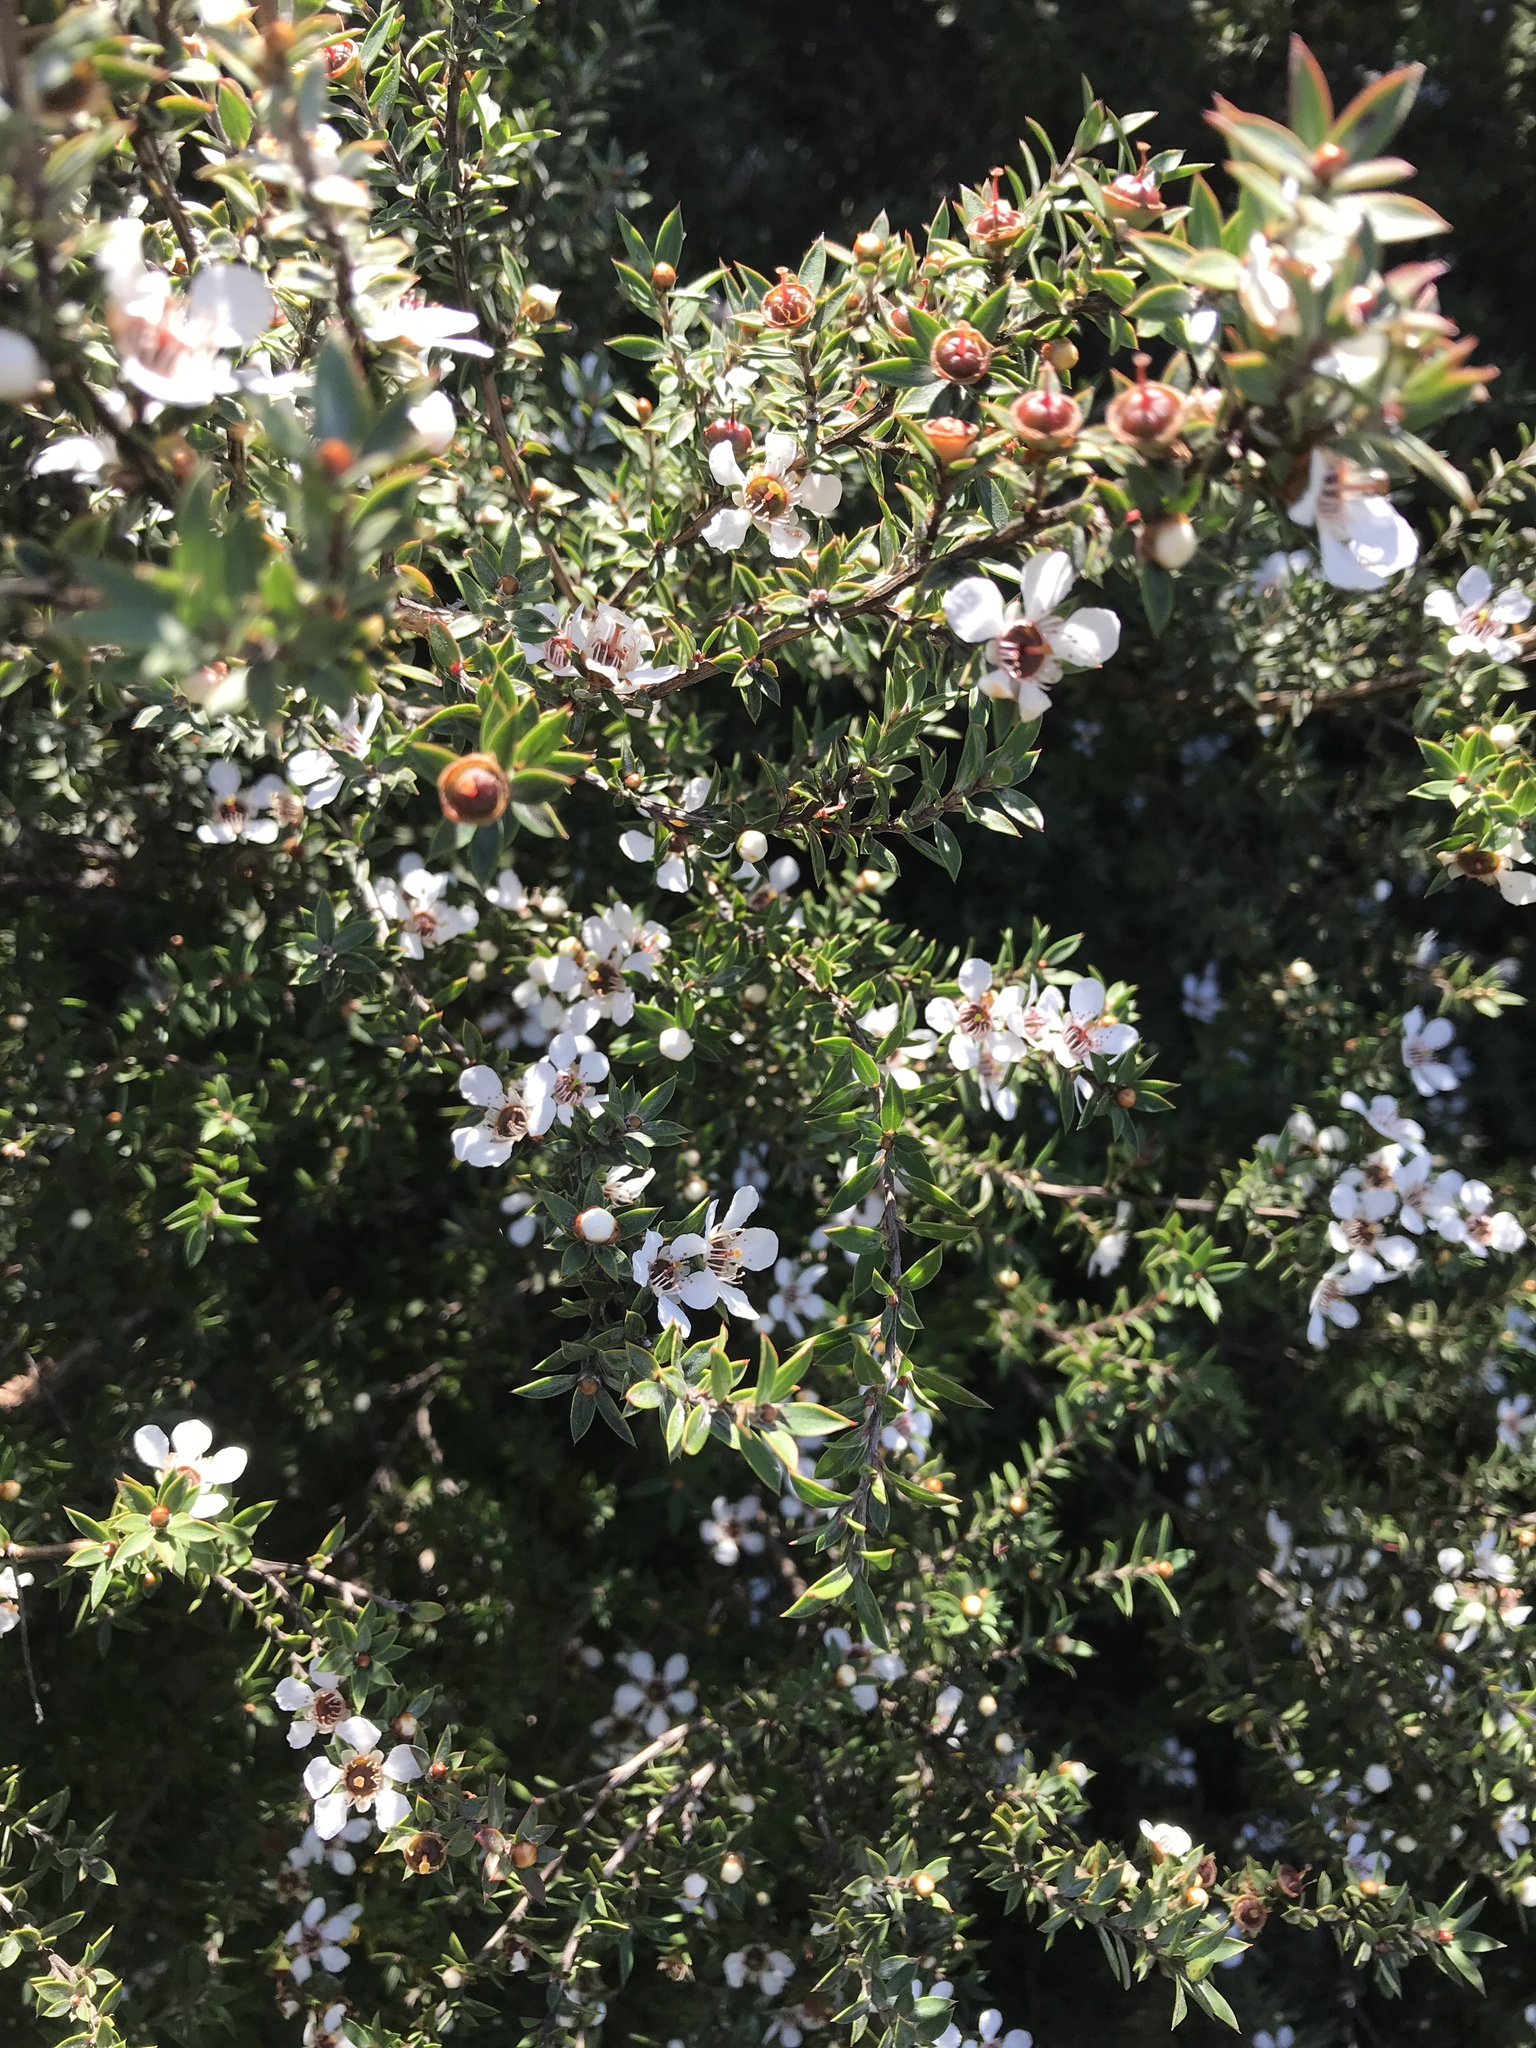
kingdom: Plantae
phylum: Tracheophyta
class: Magnoliopsida
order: Myrtales
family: Myrtaceae
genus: Leptospermum
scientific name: Leptospermum scoparium
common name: Broom tea-tree
